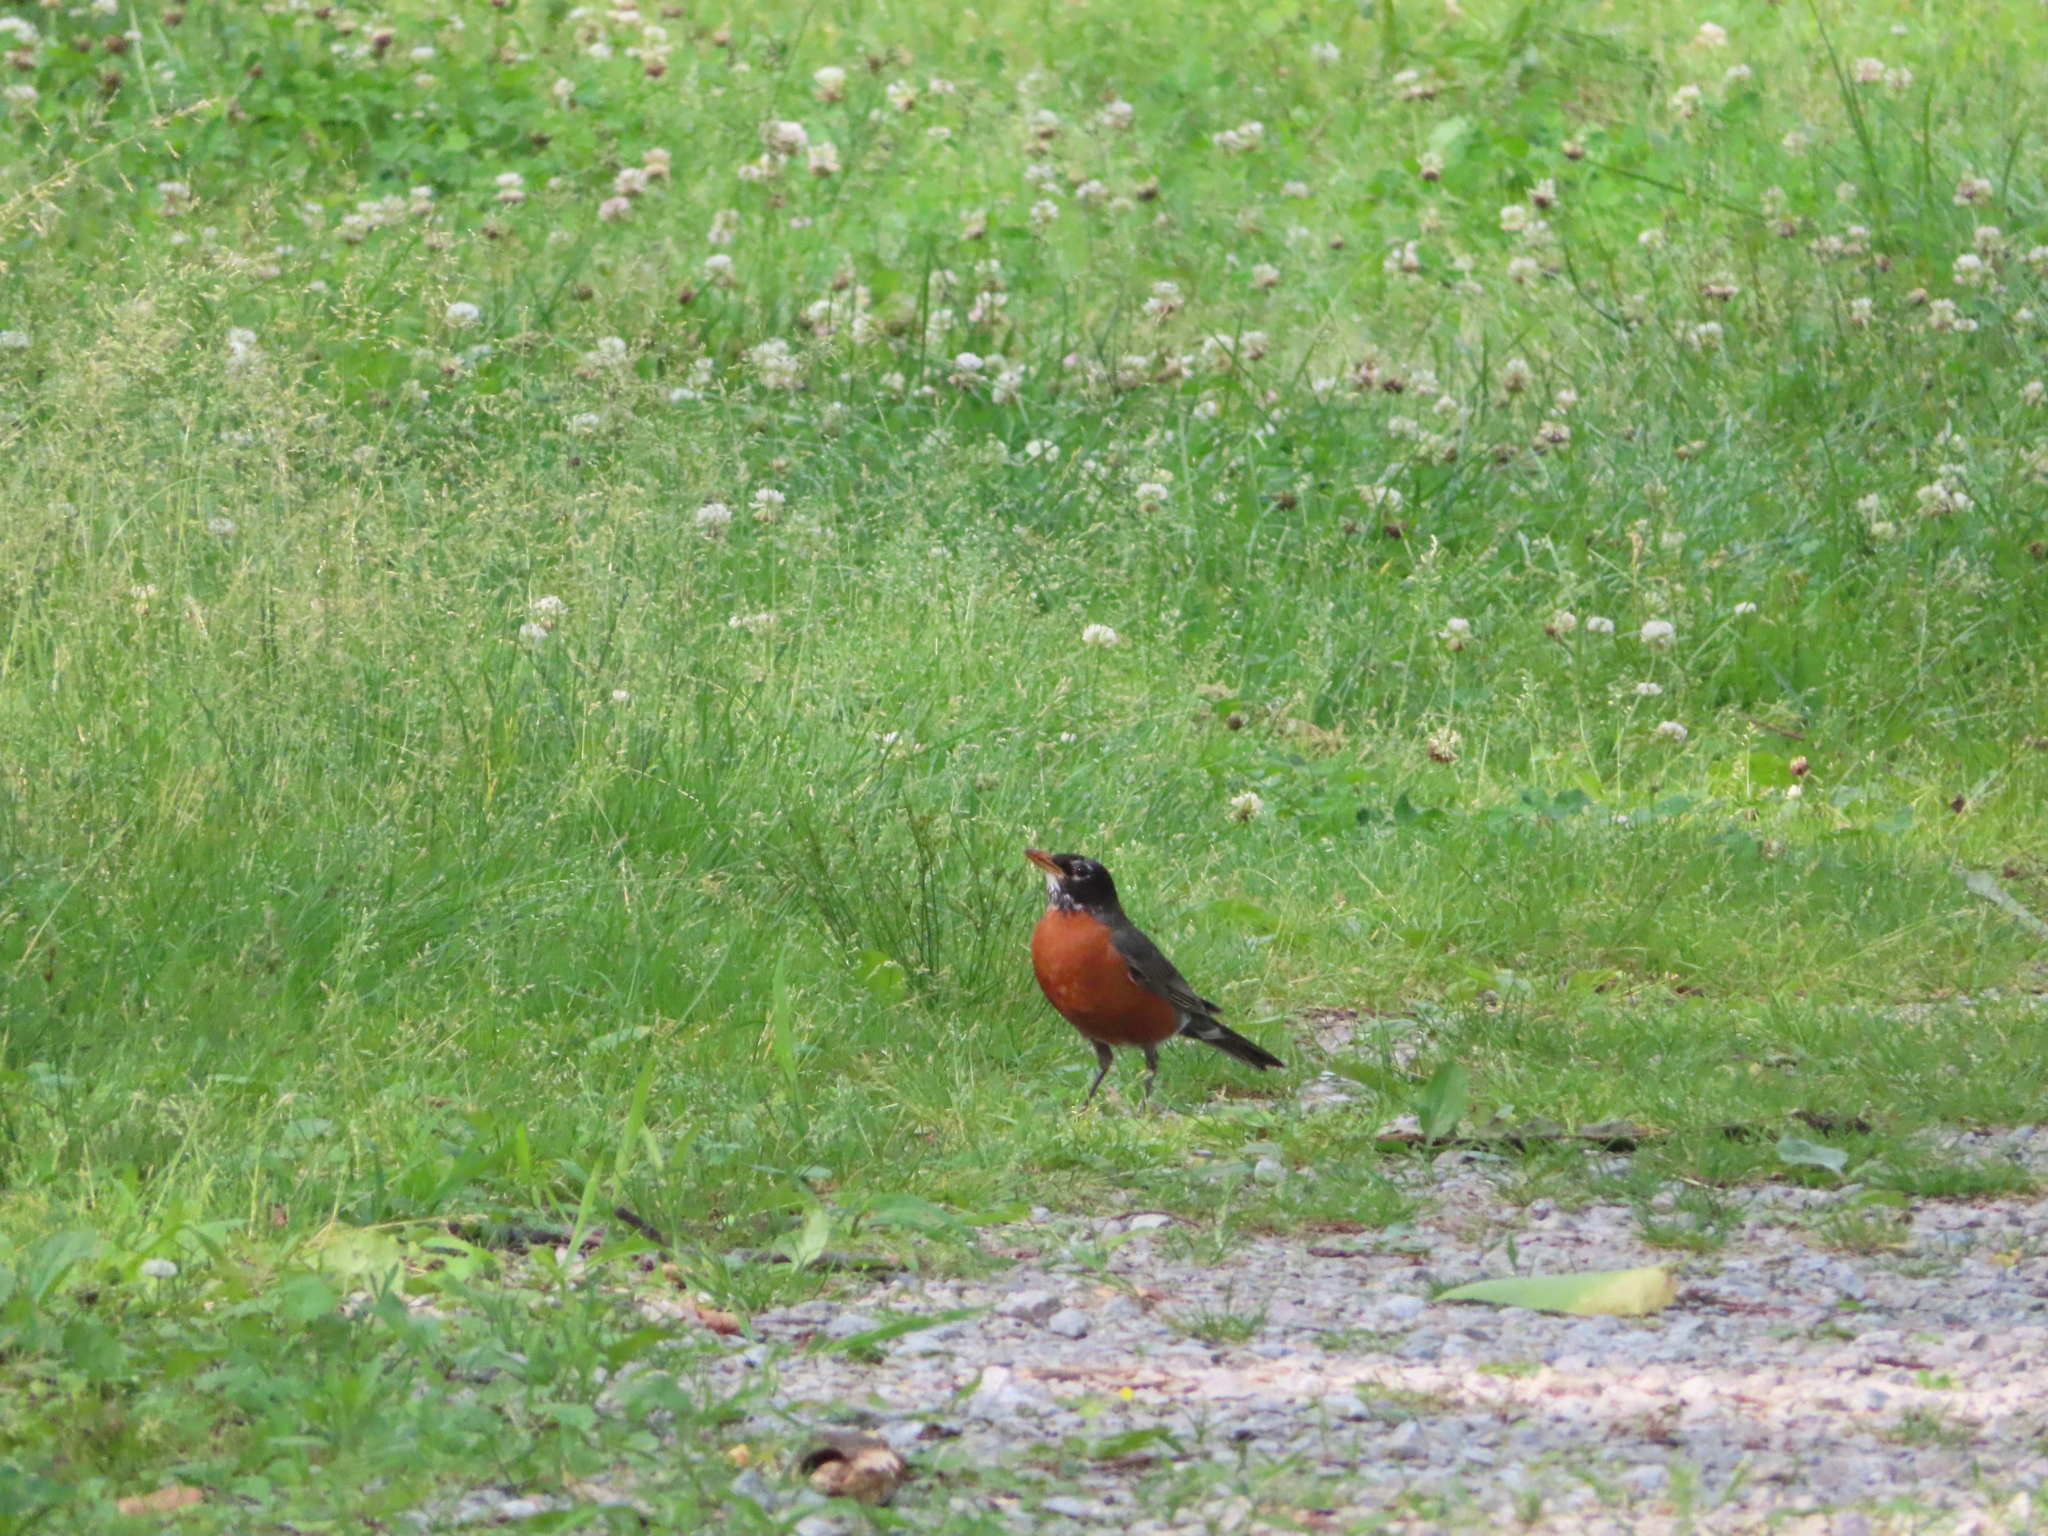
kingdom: Animalia
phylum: Chordata
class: Aves
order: Passeriformes
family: Turdidae
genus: Turdus
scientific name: Turdus migratorius
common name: American robin
